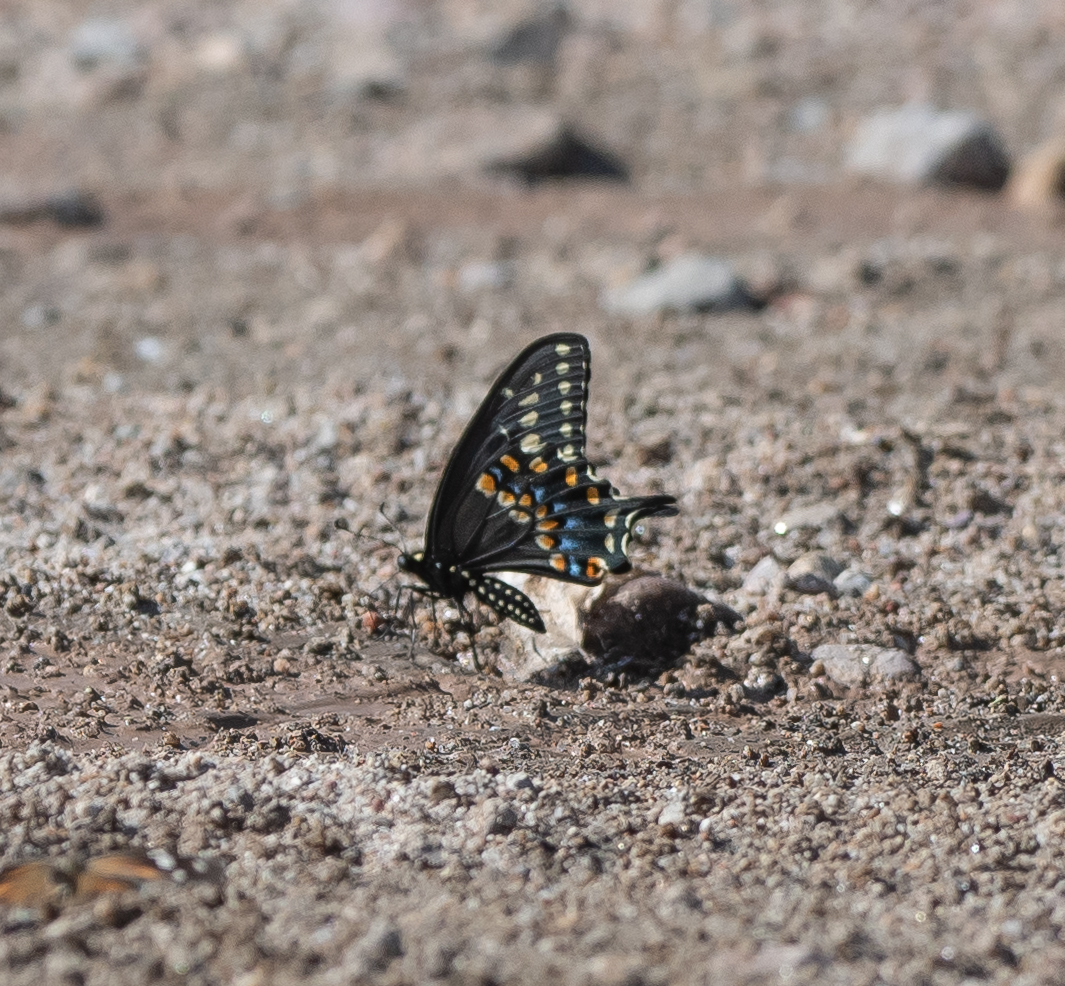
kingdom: Animalia
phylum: Arthropoda
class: Insecta
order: Lepidoptera
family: Papilionidae
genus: Papilio
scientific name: Papilio polyxenes
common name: Black swallowtail
